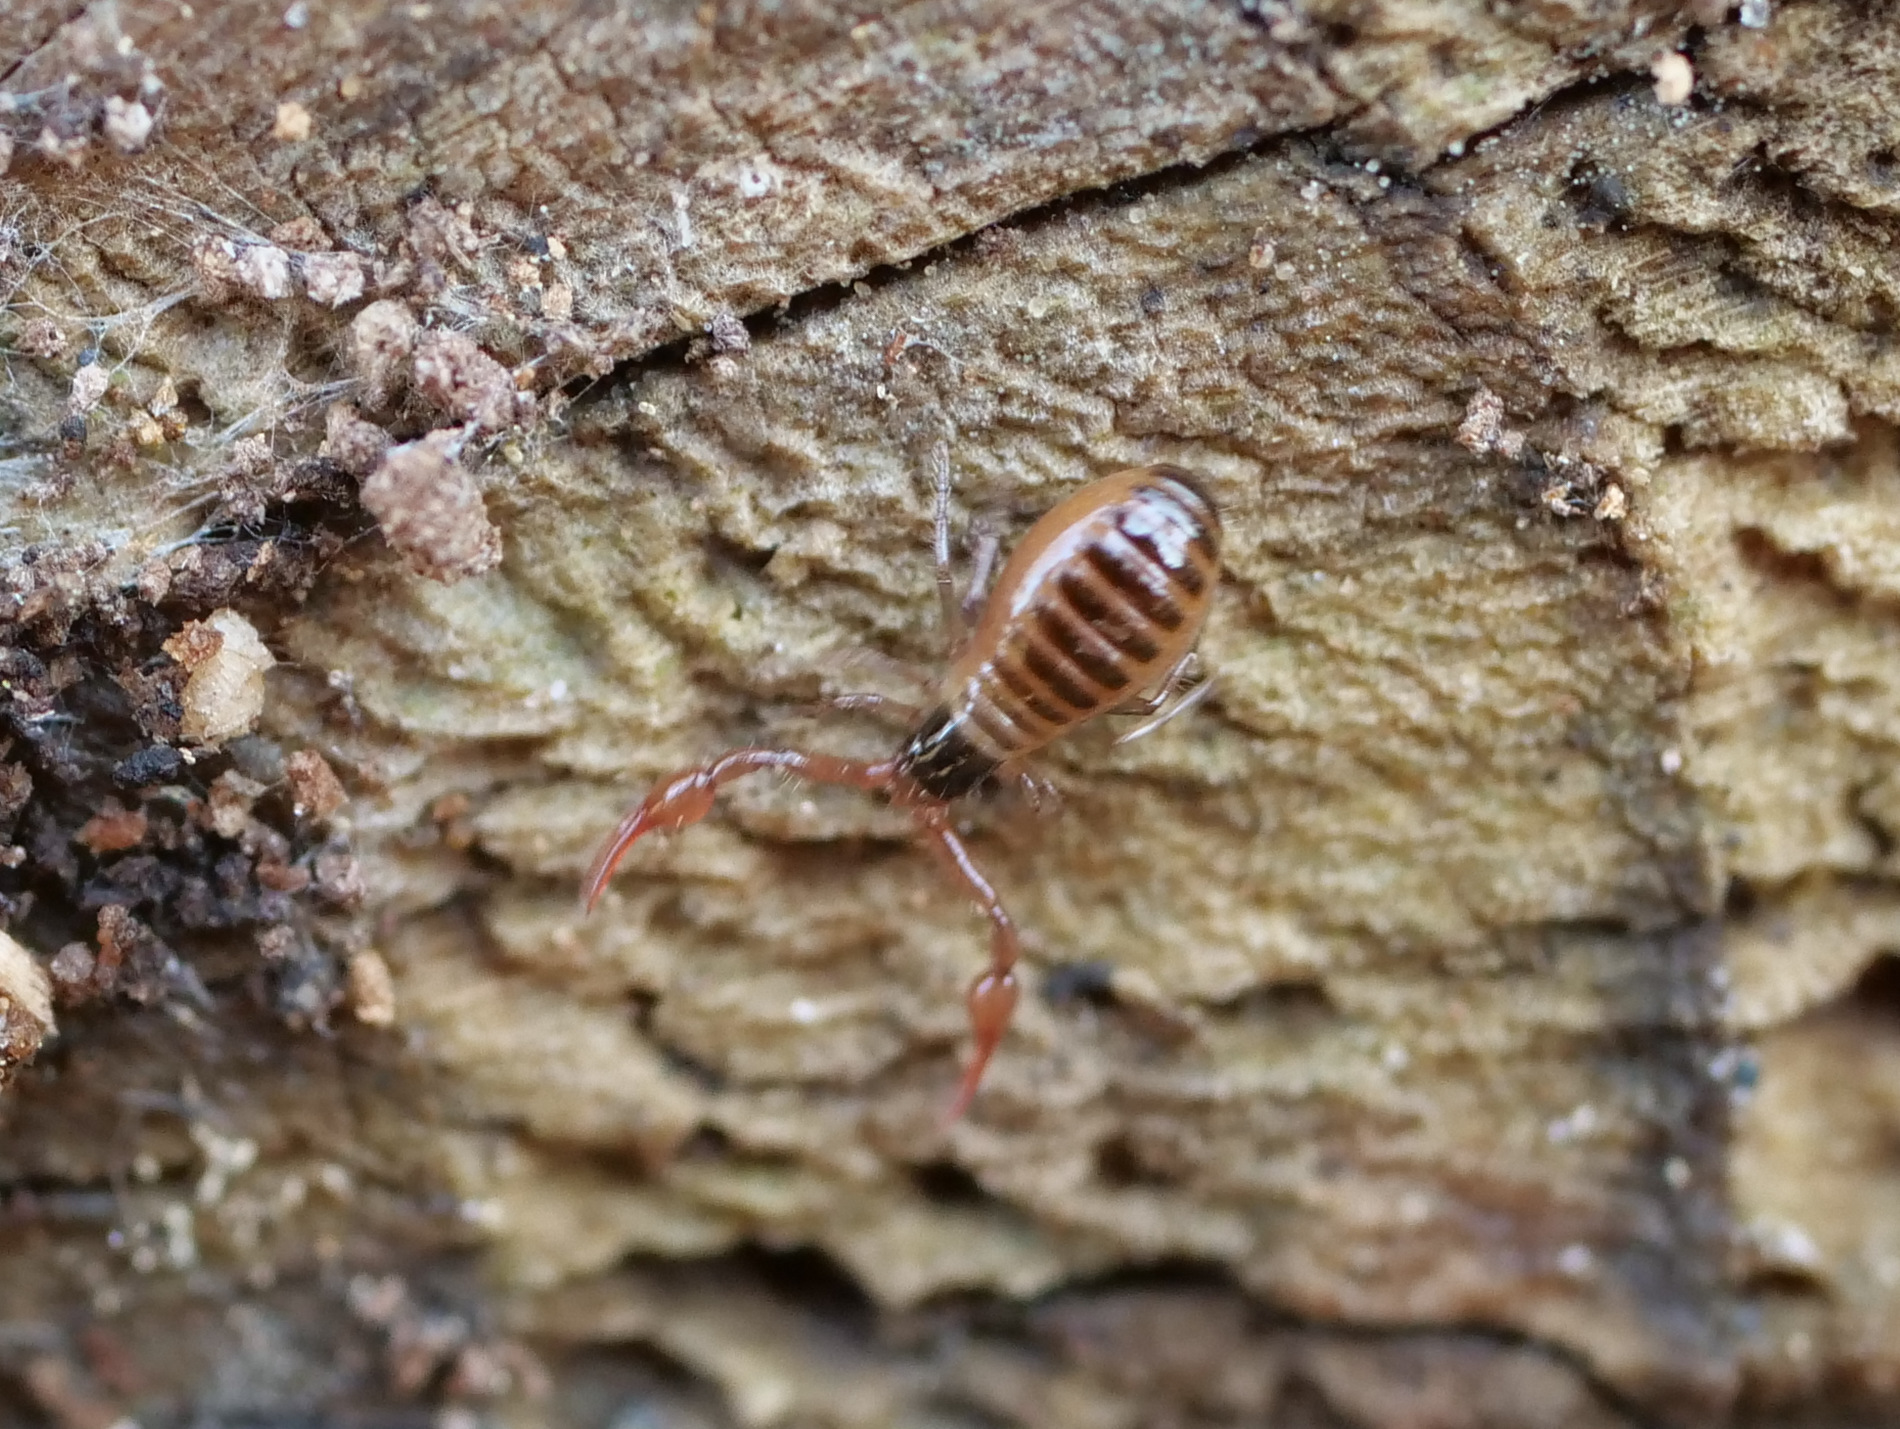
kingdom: Animalia
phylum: Arthropoda
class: Arachnida
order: Pseudoscorpiones
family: Neobisiidae
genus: Neobisium
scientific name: Neobisium
